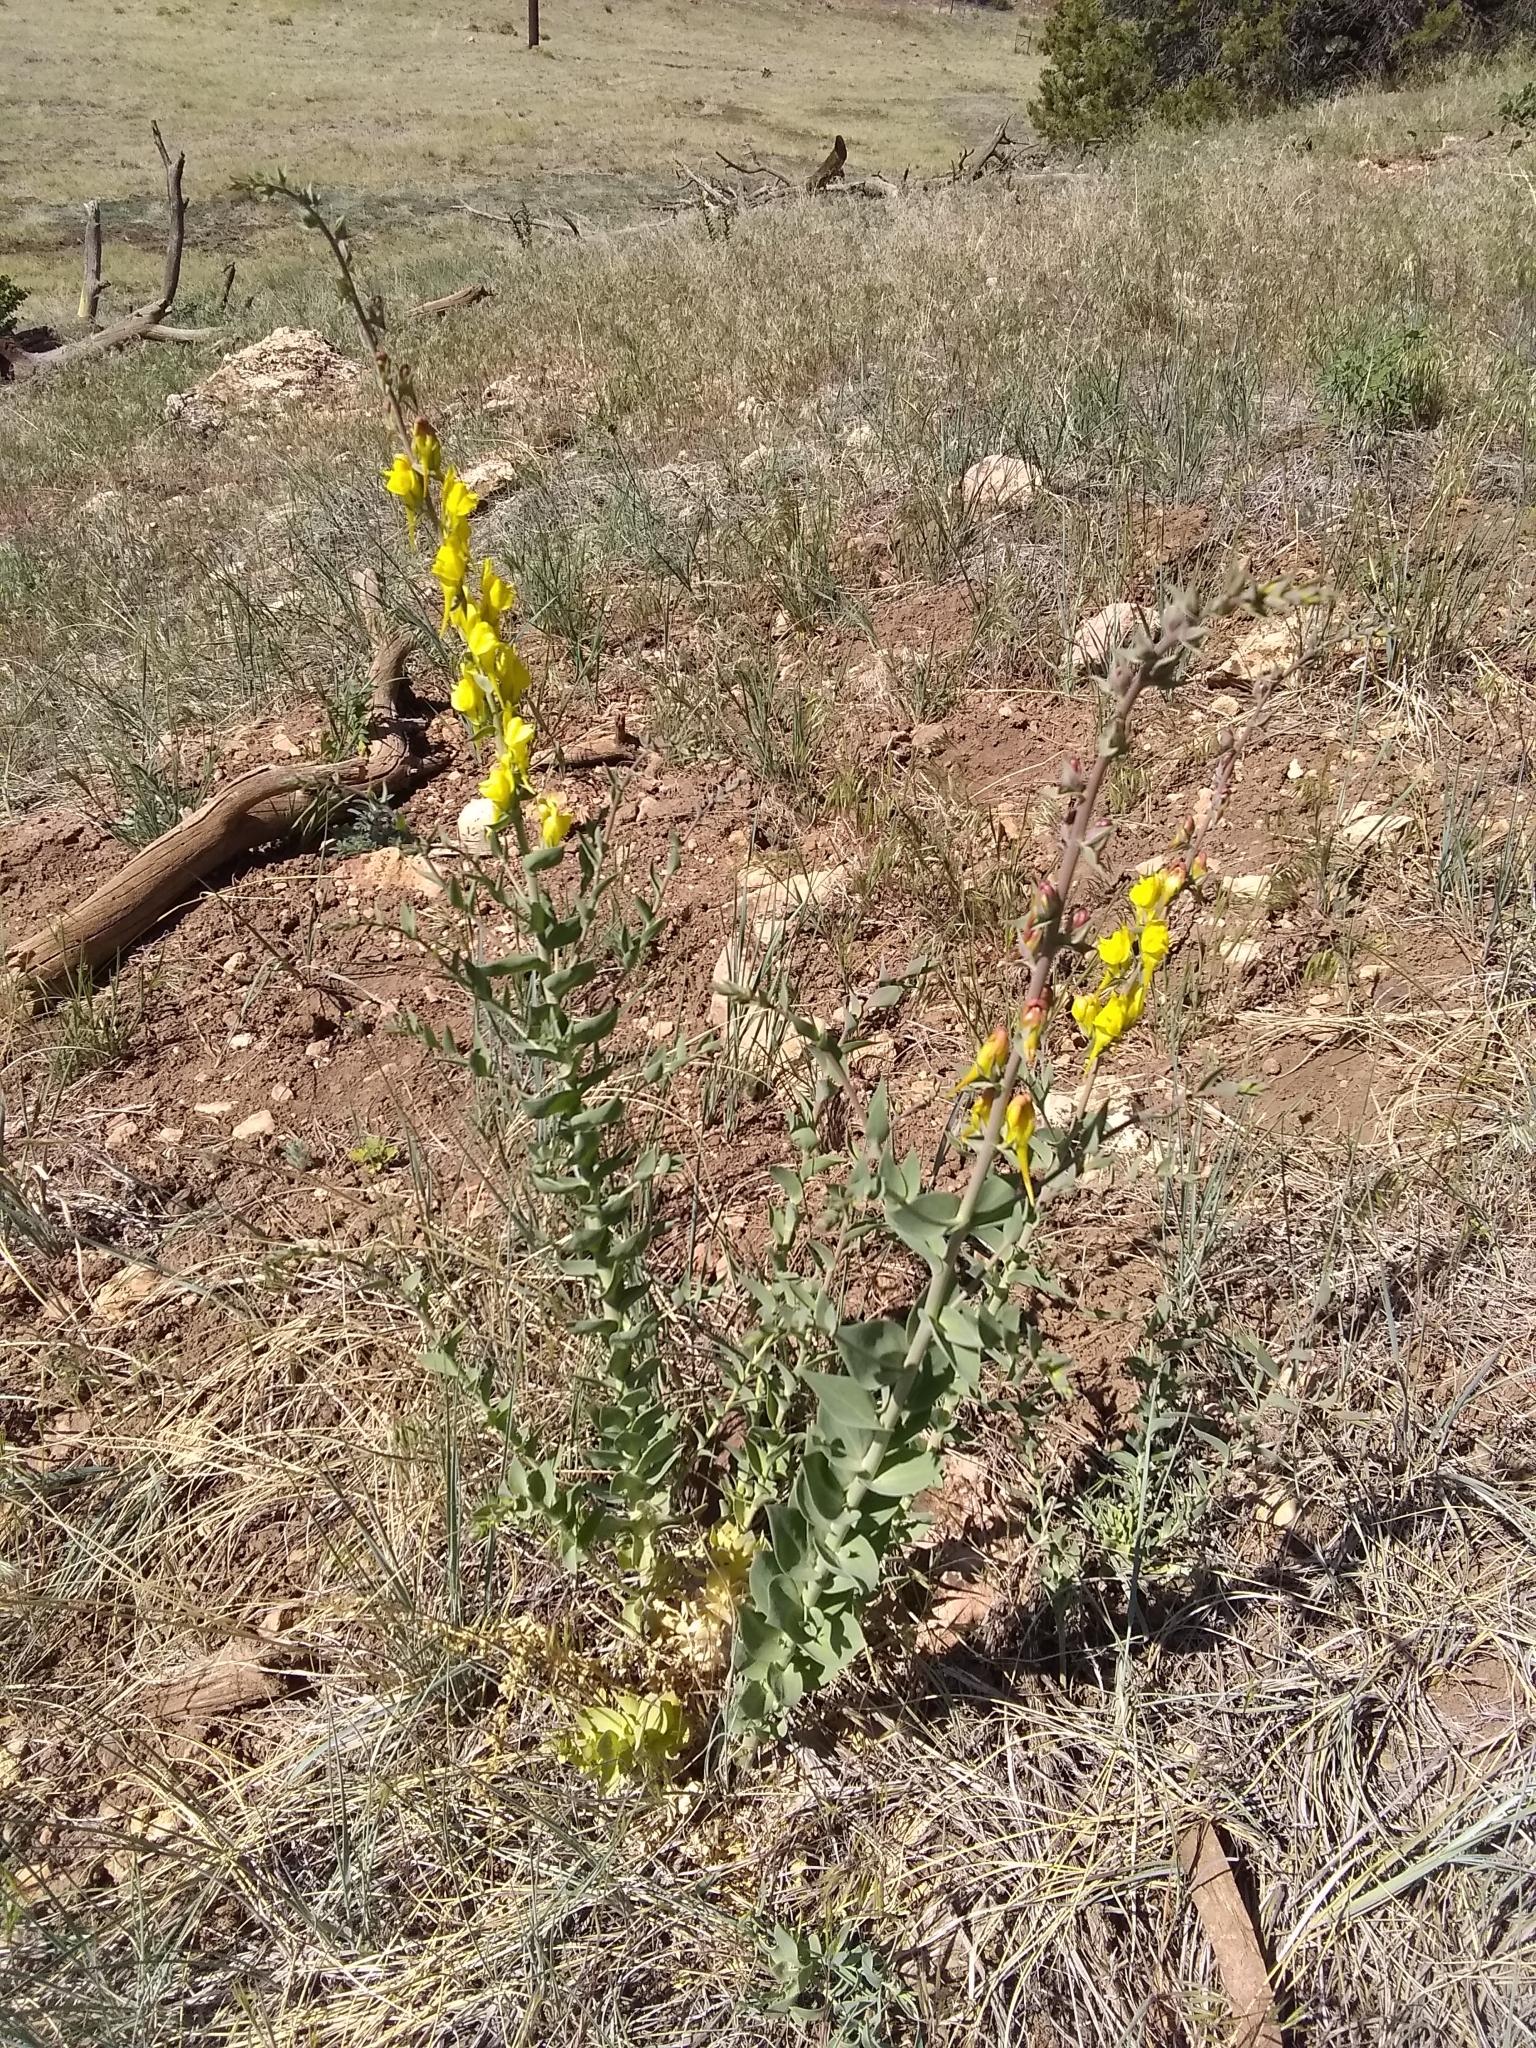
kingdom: Plantae
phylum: Tracheophyta
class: Magnoliopsida
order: Lamiales
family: Plantaginaceae
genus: Linaria
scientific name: Linaria dalmatica
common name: Dalmatian toadflax
